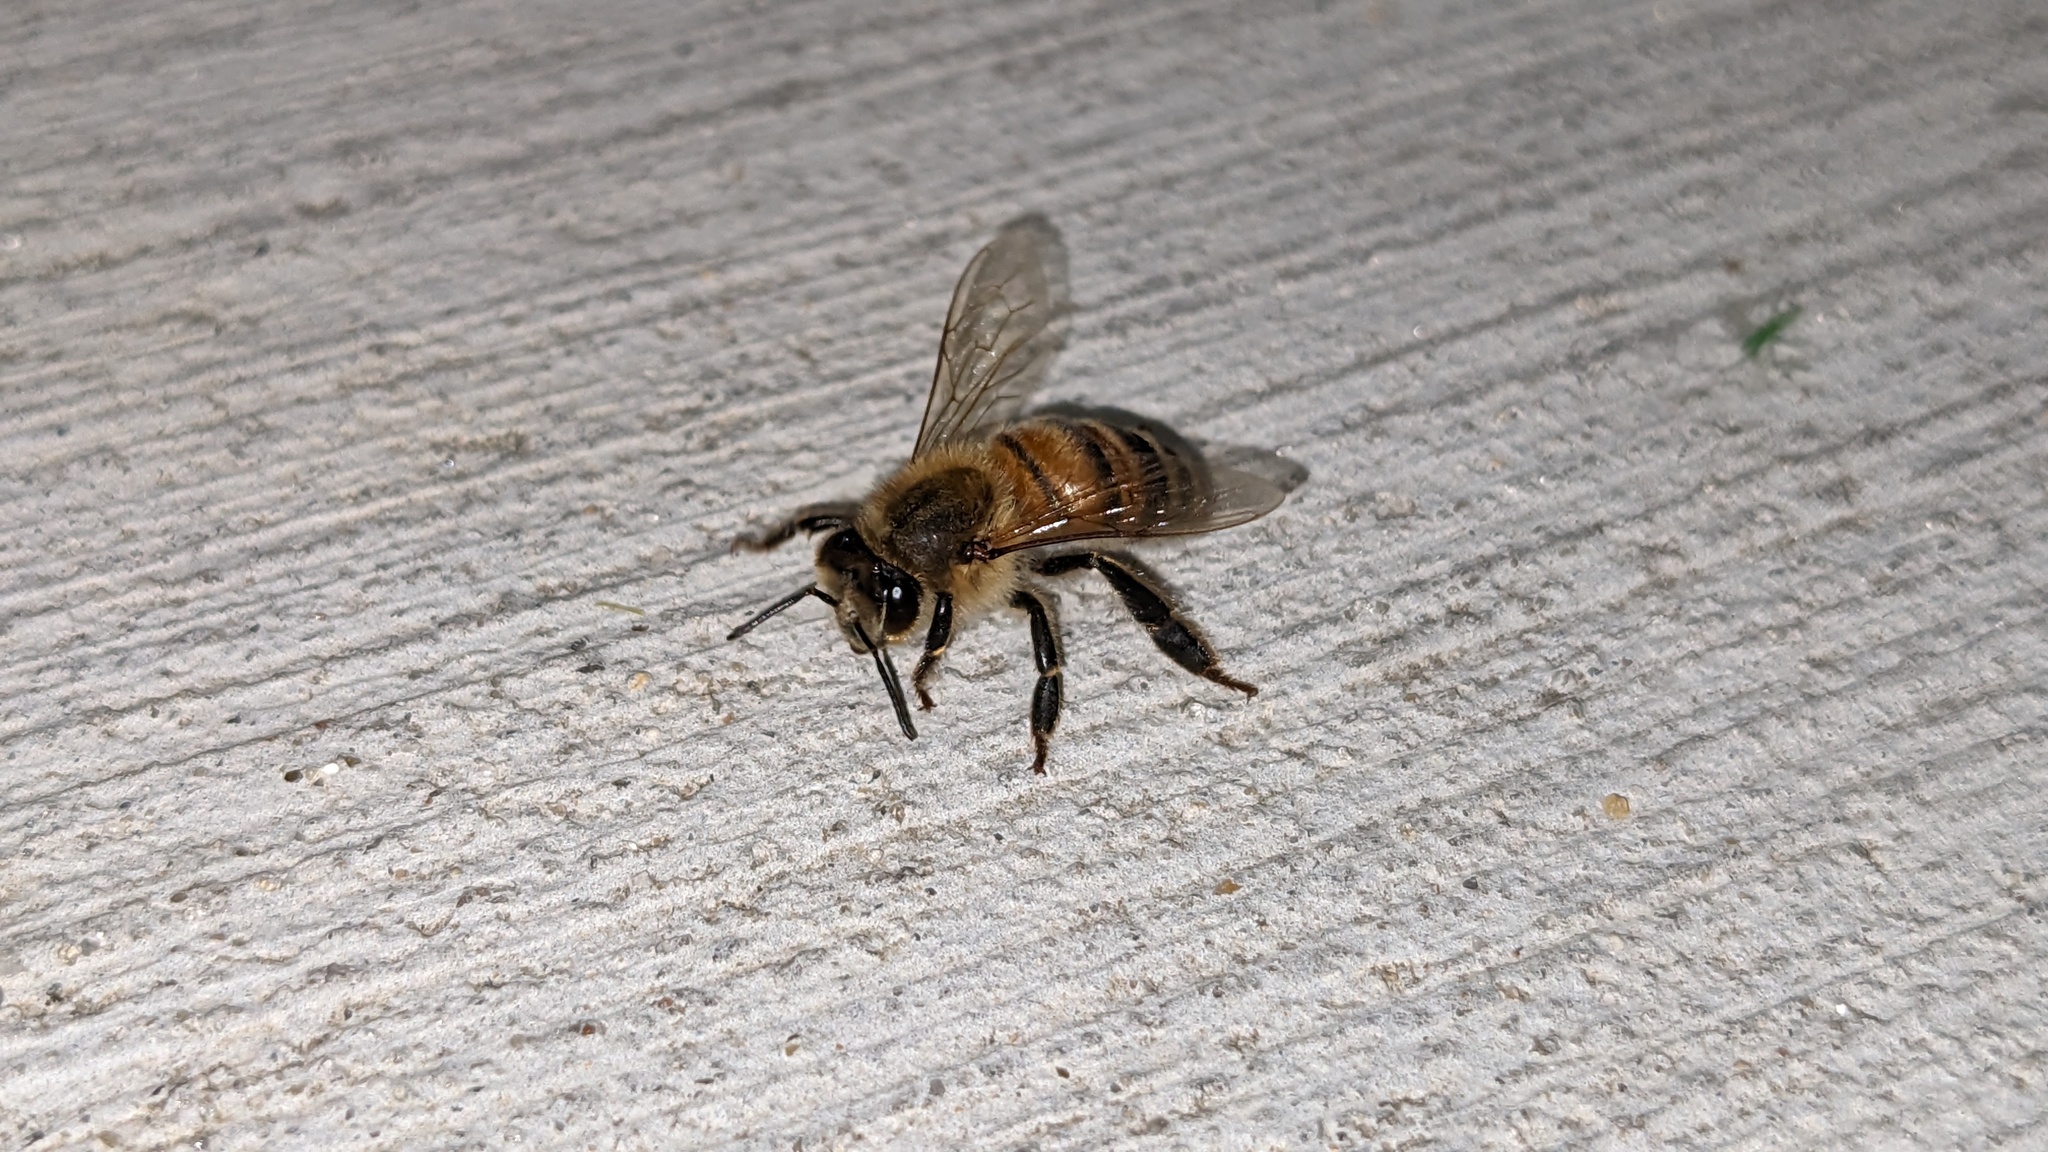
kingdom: Animalia
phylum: Arthropoda
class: Insecta
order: Hymenoptera
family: Apidae
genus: Apis
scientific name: Apis mellifera
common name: Honey bee
